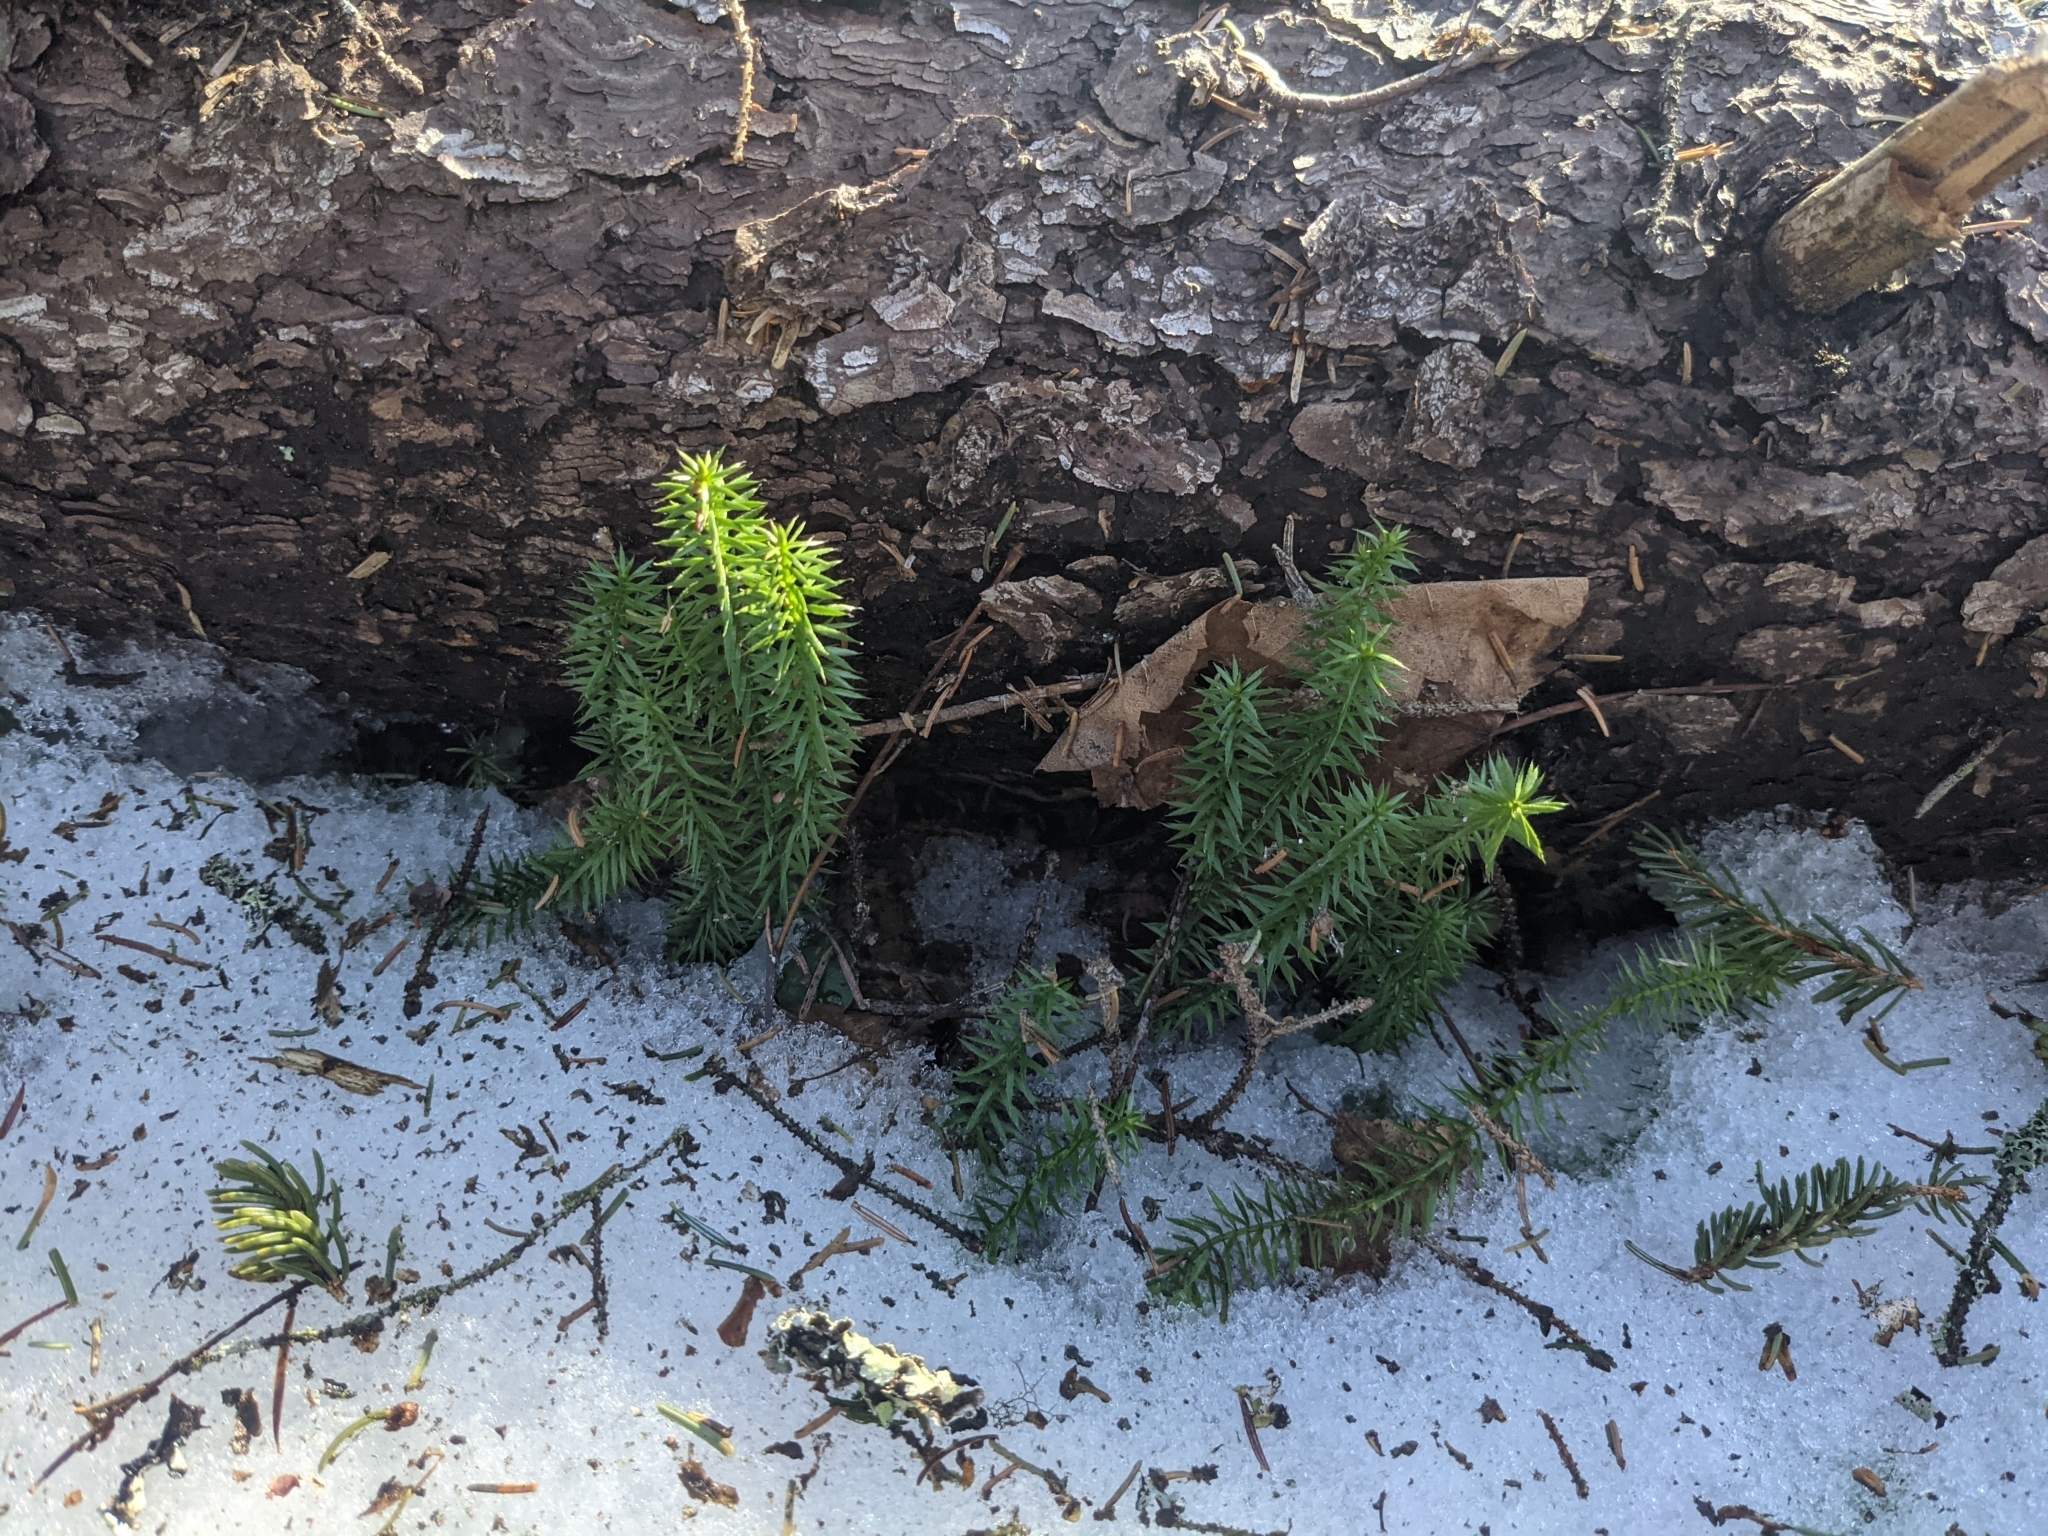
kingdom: Plantae
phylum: Tracheophyta
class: Lycopodiopsida
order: Lycopodiales
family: Lycopodiaceae
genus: Huperzia
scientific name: Huperzia lucidula
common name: Shining clubmoss
